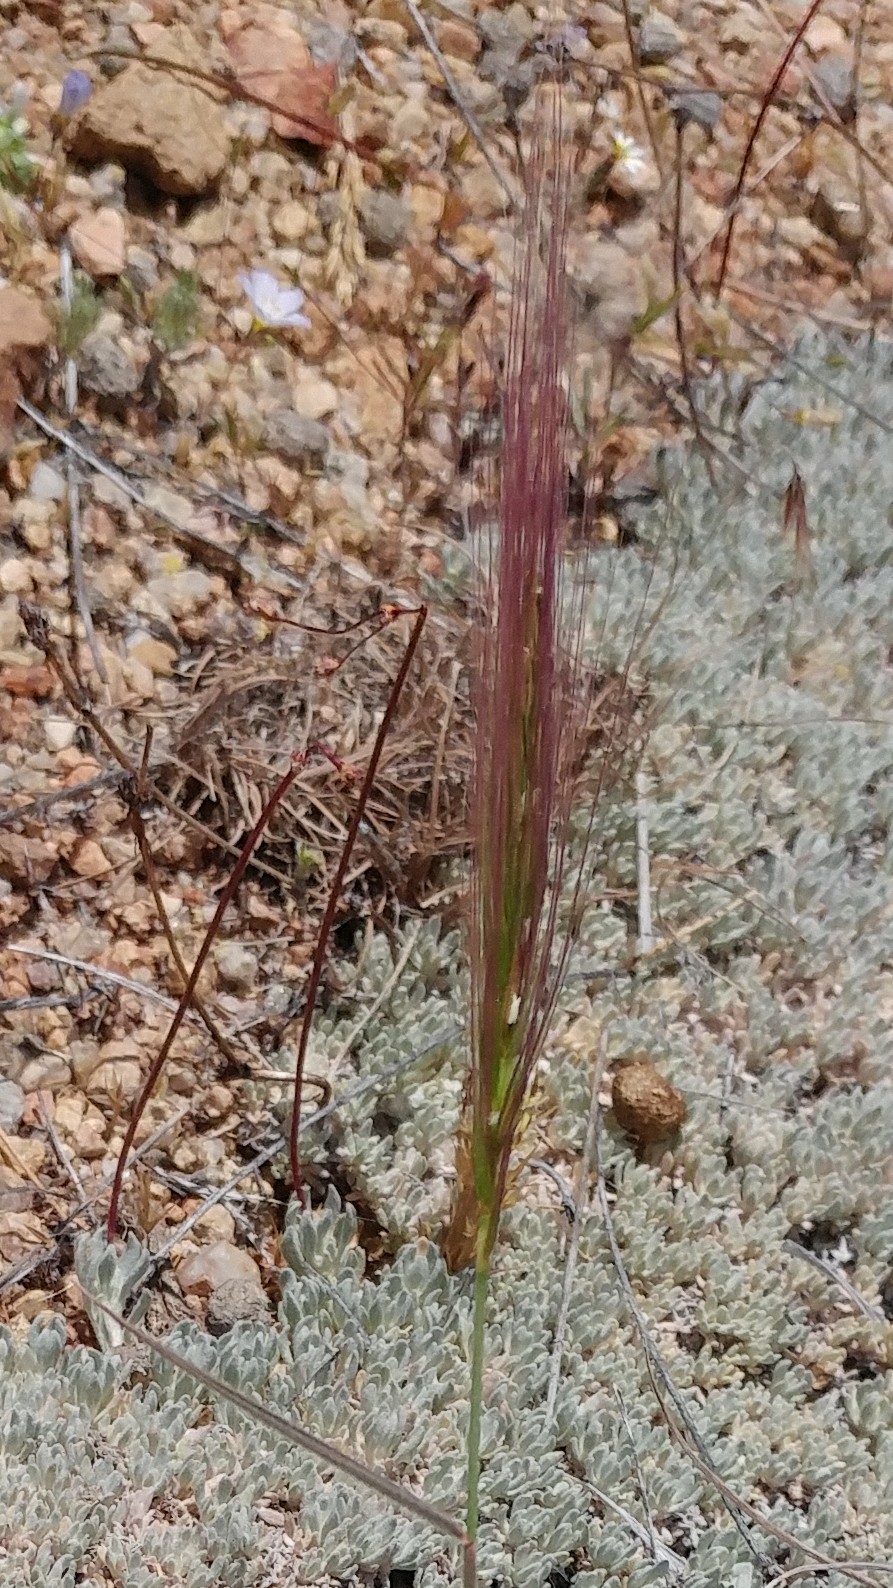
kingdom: Plantae
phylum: Tracheophyta
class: Liliopsida
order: Poales
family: Poaceae
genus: Elymus
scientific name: Elymus elymoides
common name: Bottlebrush squirreltail
